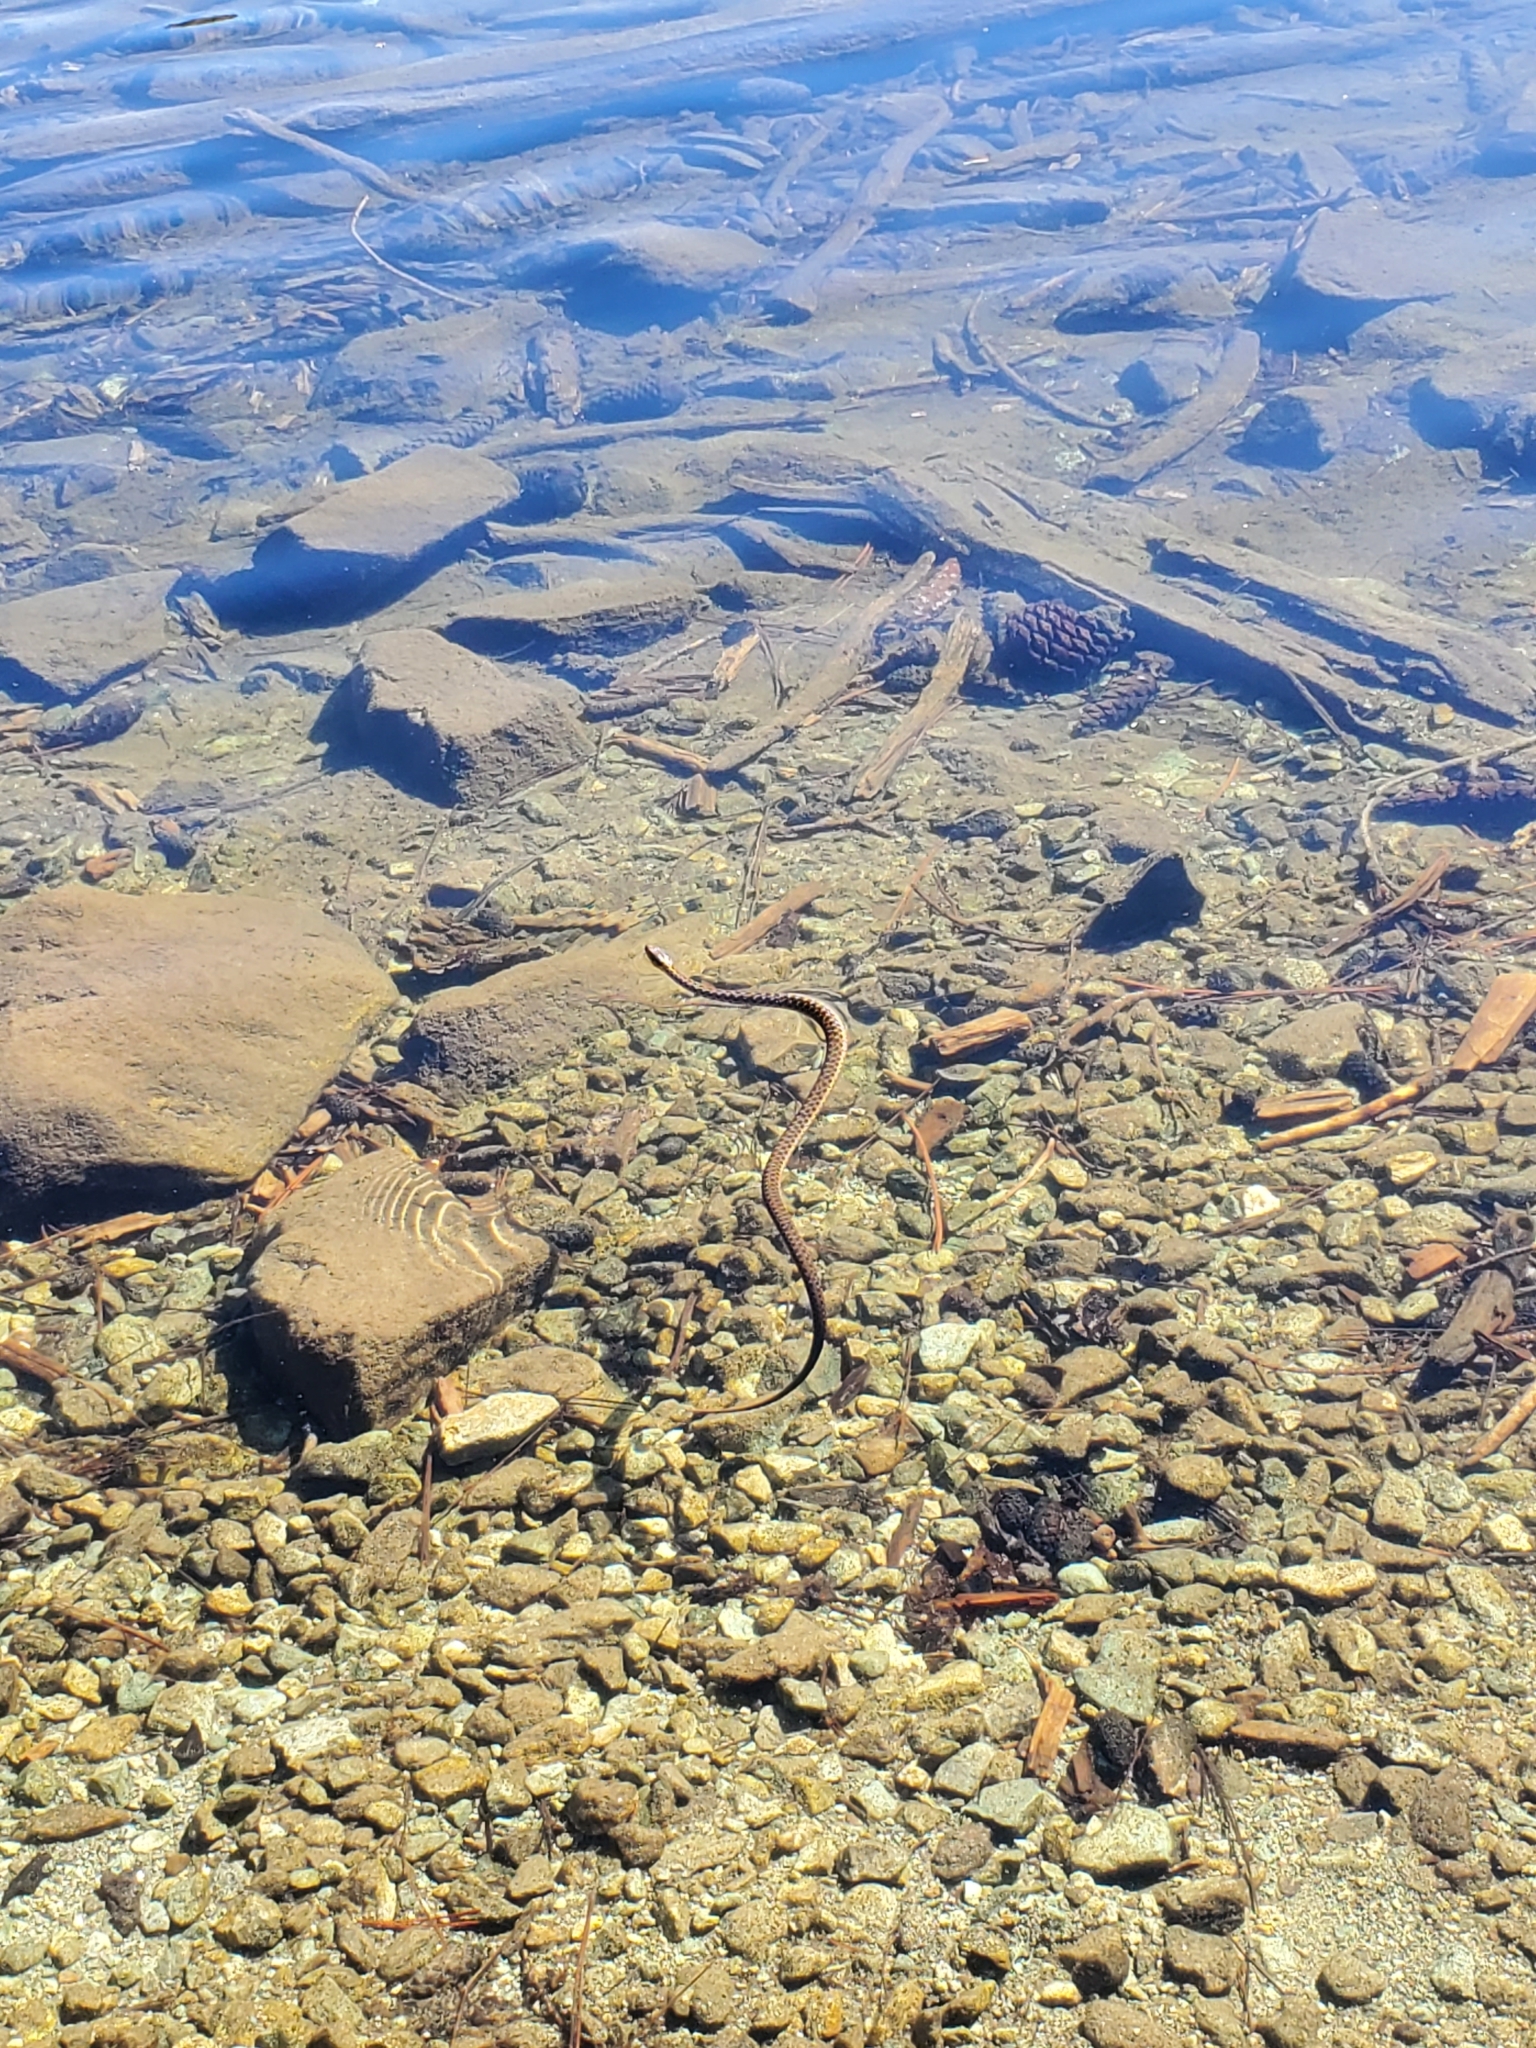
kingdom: Animalia
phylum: Chordata
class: Squamata
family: Colubridae
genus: Thamnophis
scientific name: Thamnophis couchii
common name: Western aquatic garter snake
